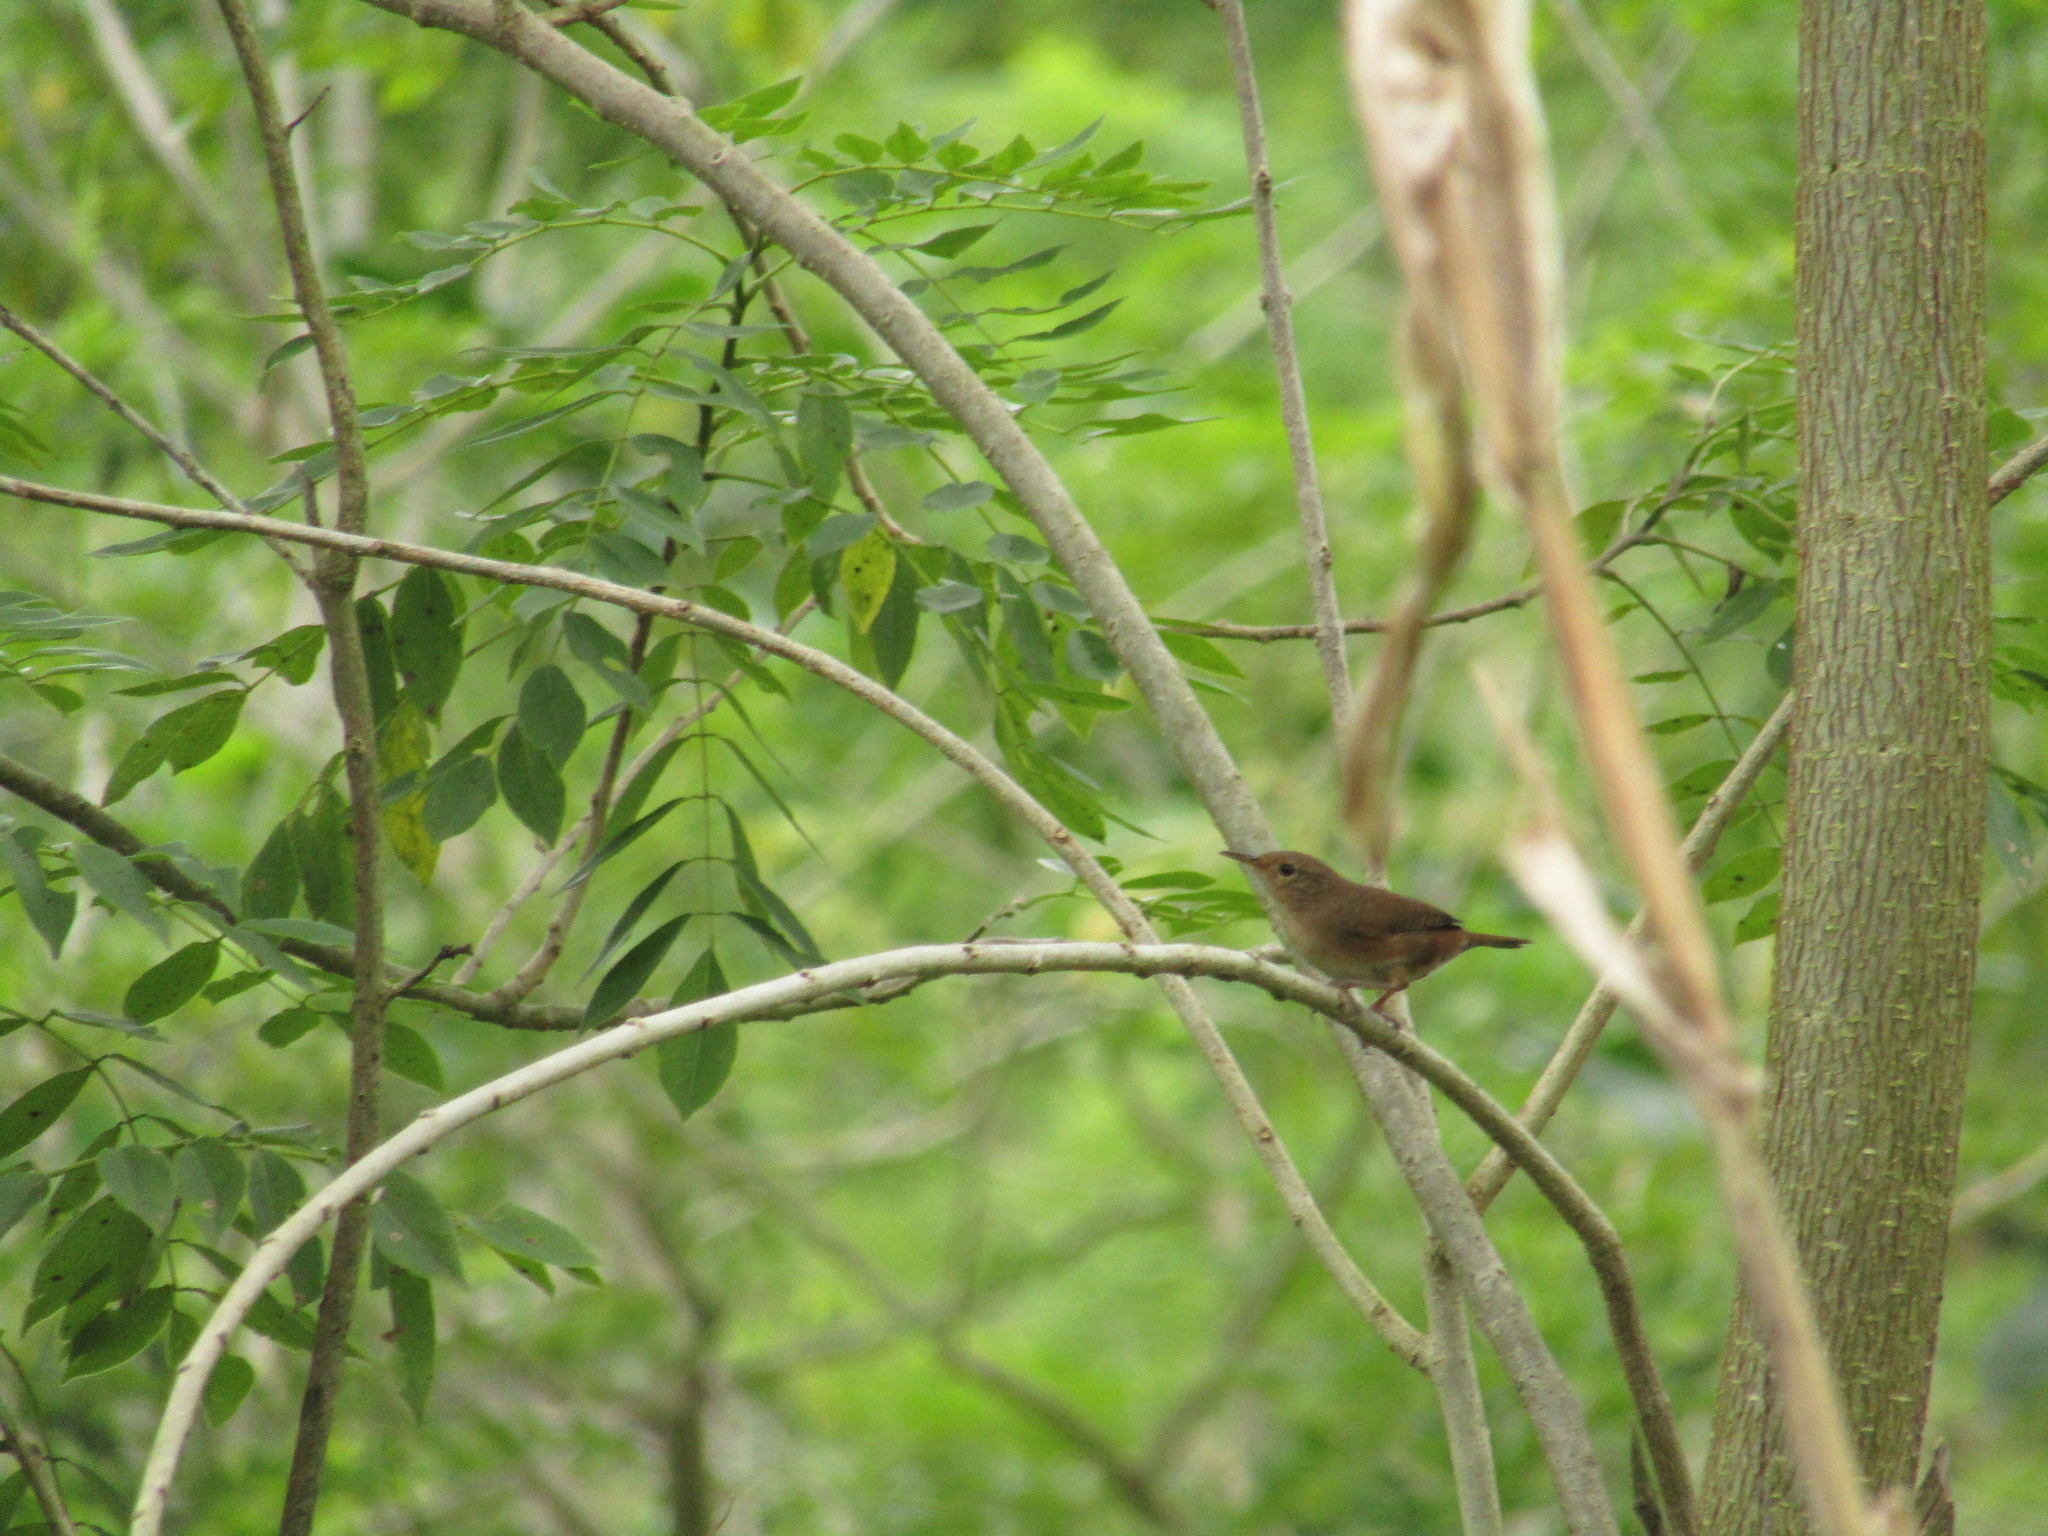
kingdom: Animalia
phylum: Chordata
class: Aves
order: Passeriformes
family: Troglodytidae
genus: Troglodytes
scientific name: Troglodytes aedon
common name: House wren
